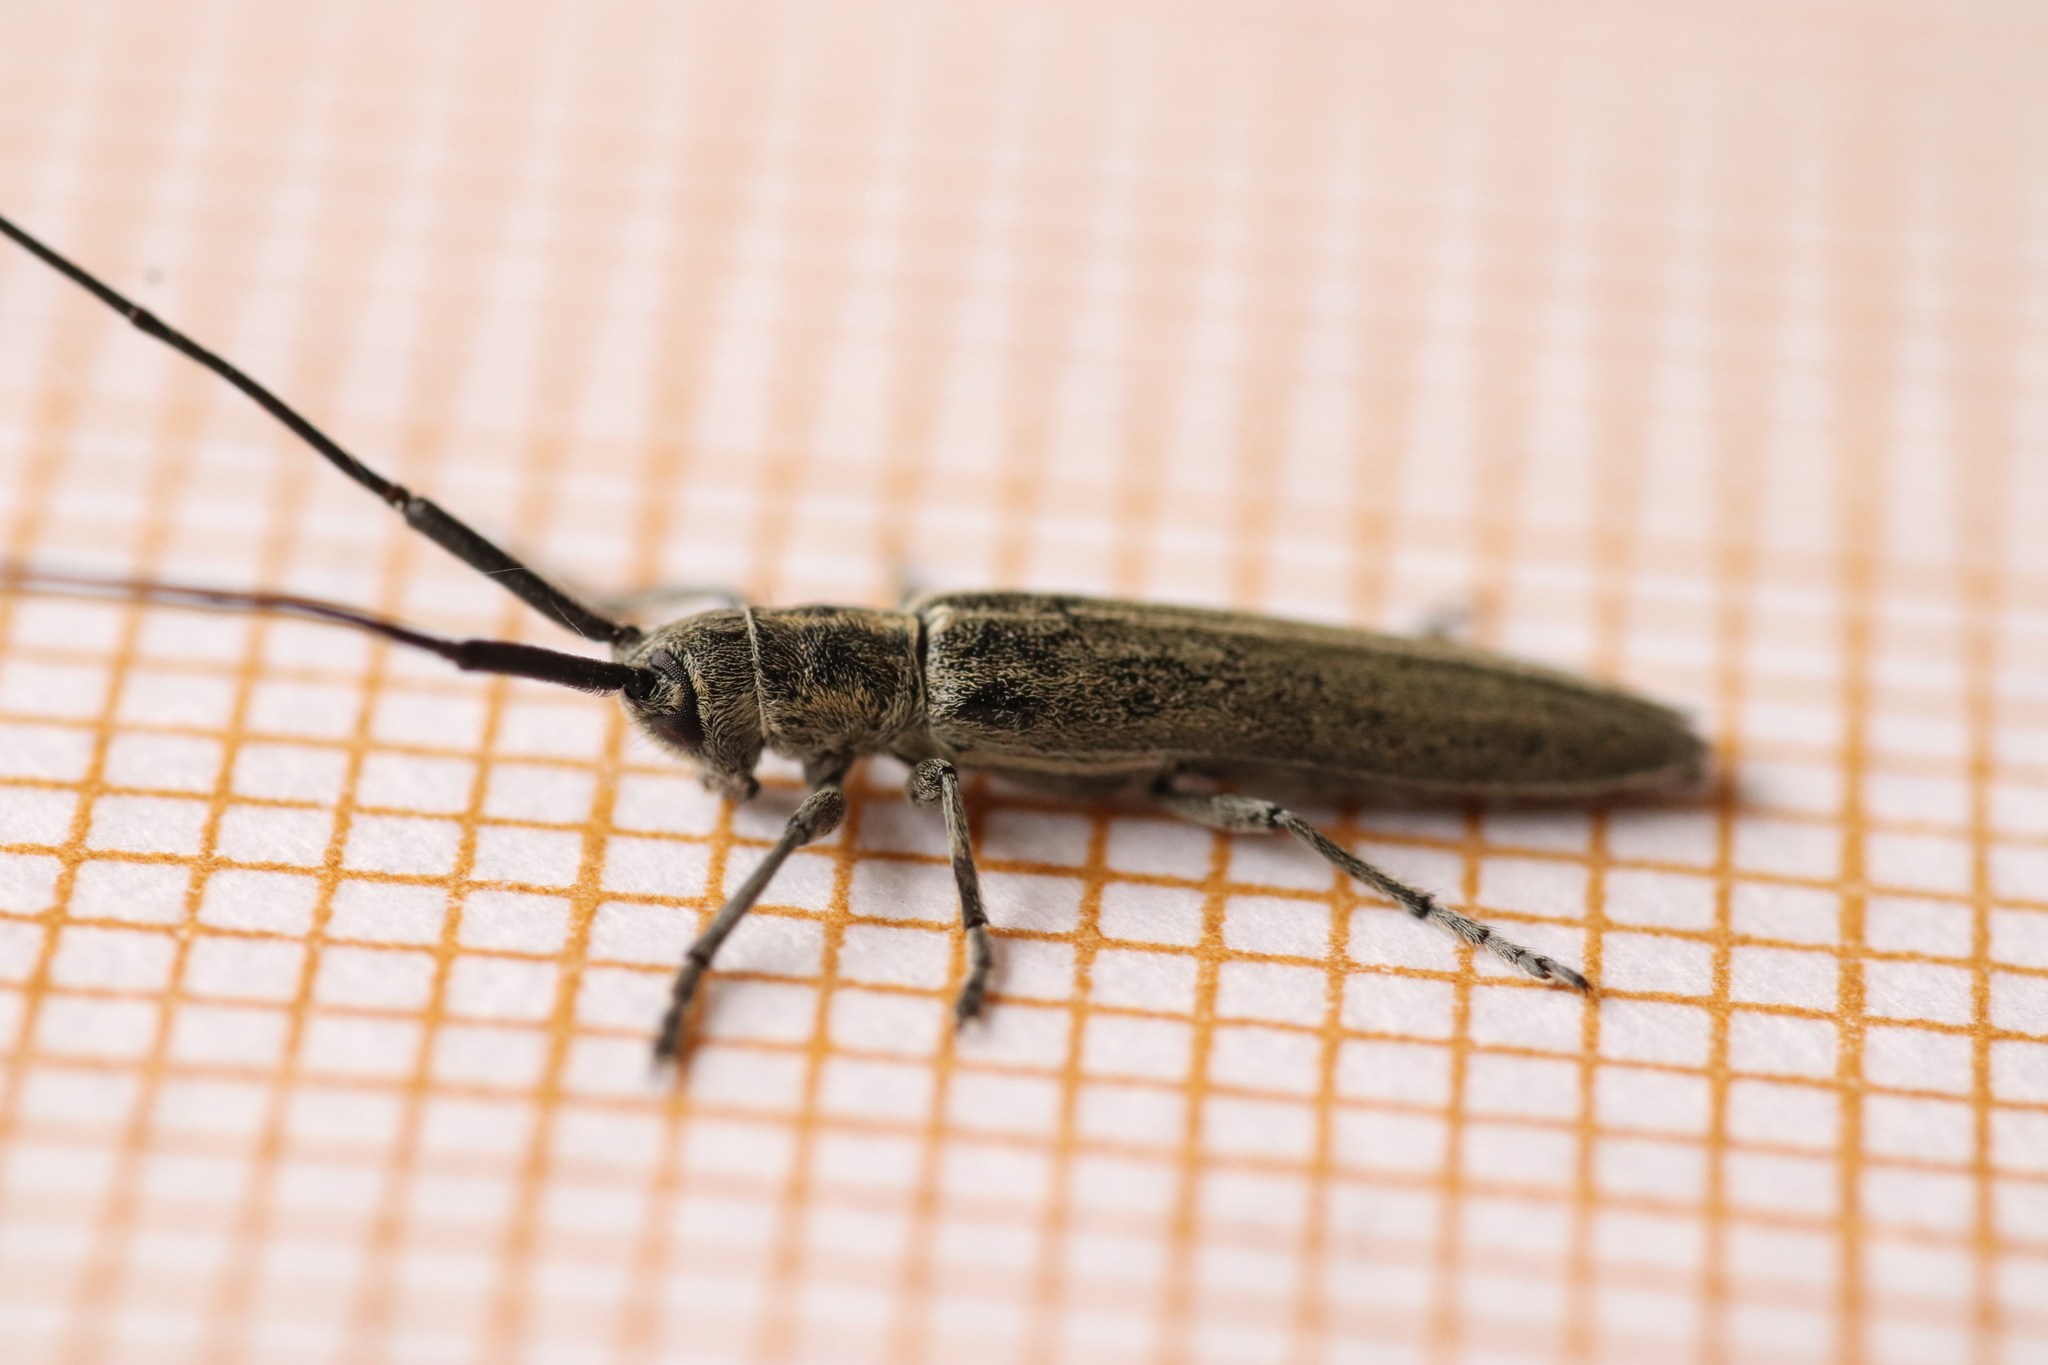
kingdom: Animalia
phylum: Arthropoda
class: Insecta
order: Coleoptera
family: Cerambycidae
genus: Calamobius
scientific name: Calamobius filum
